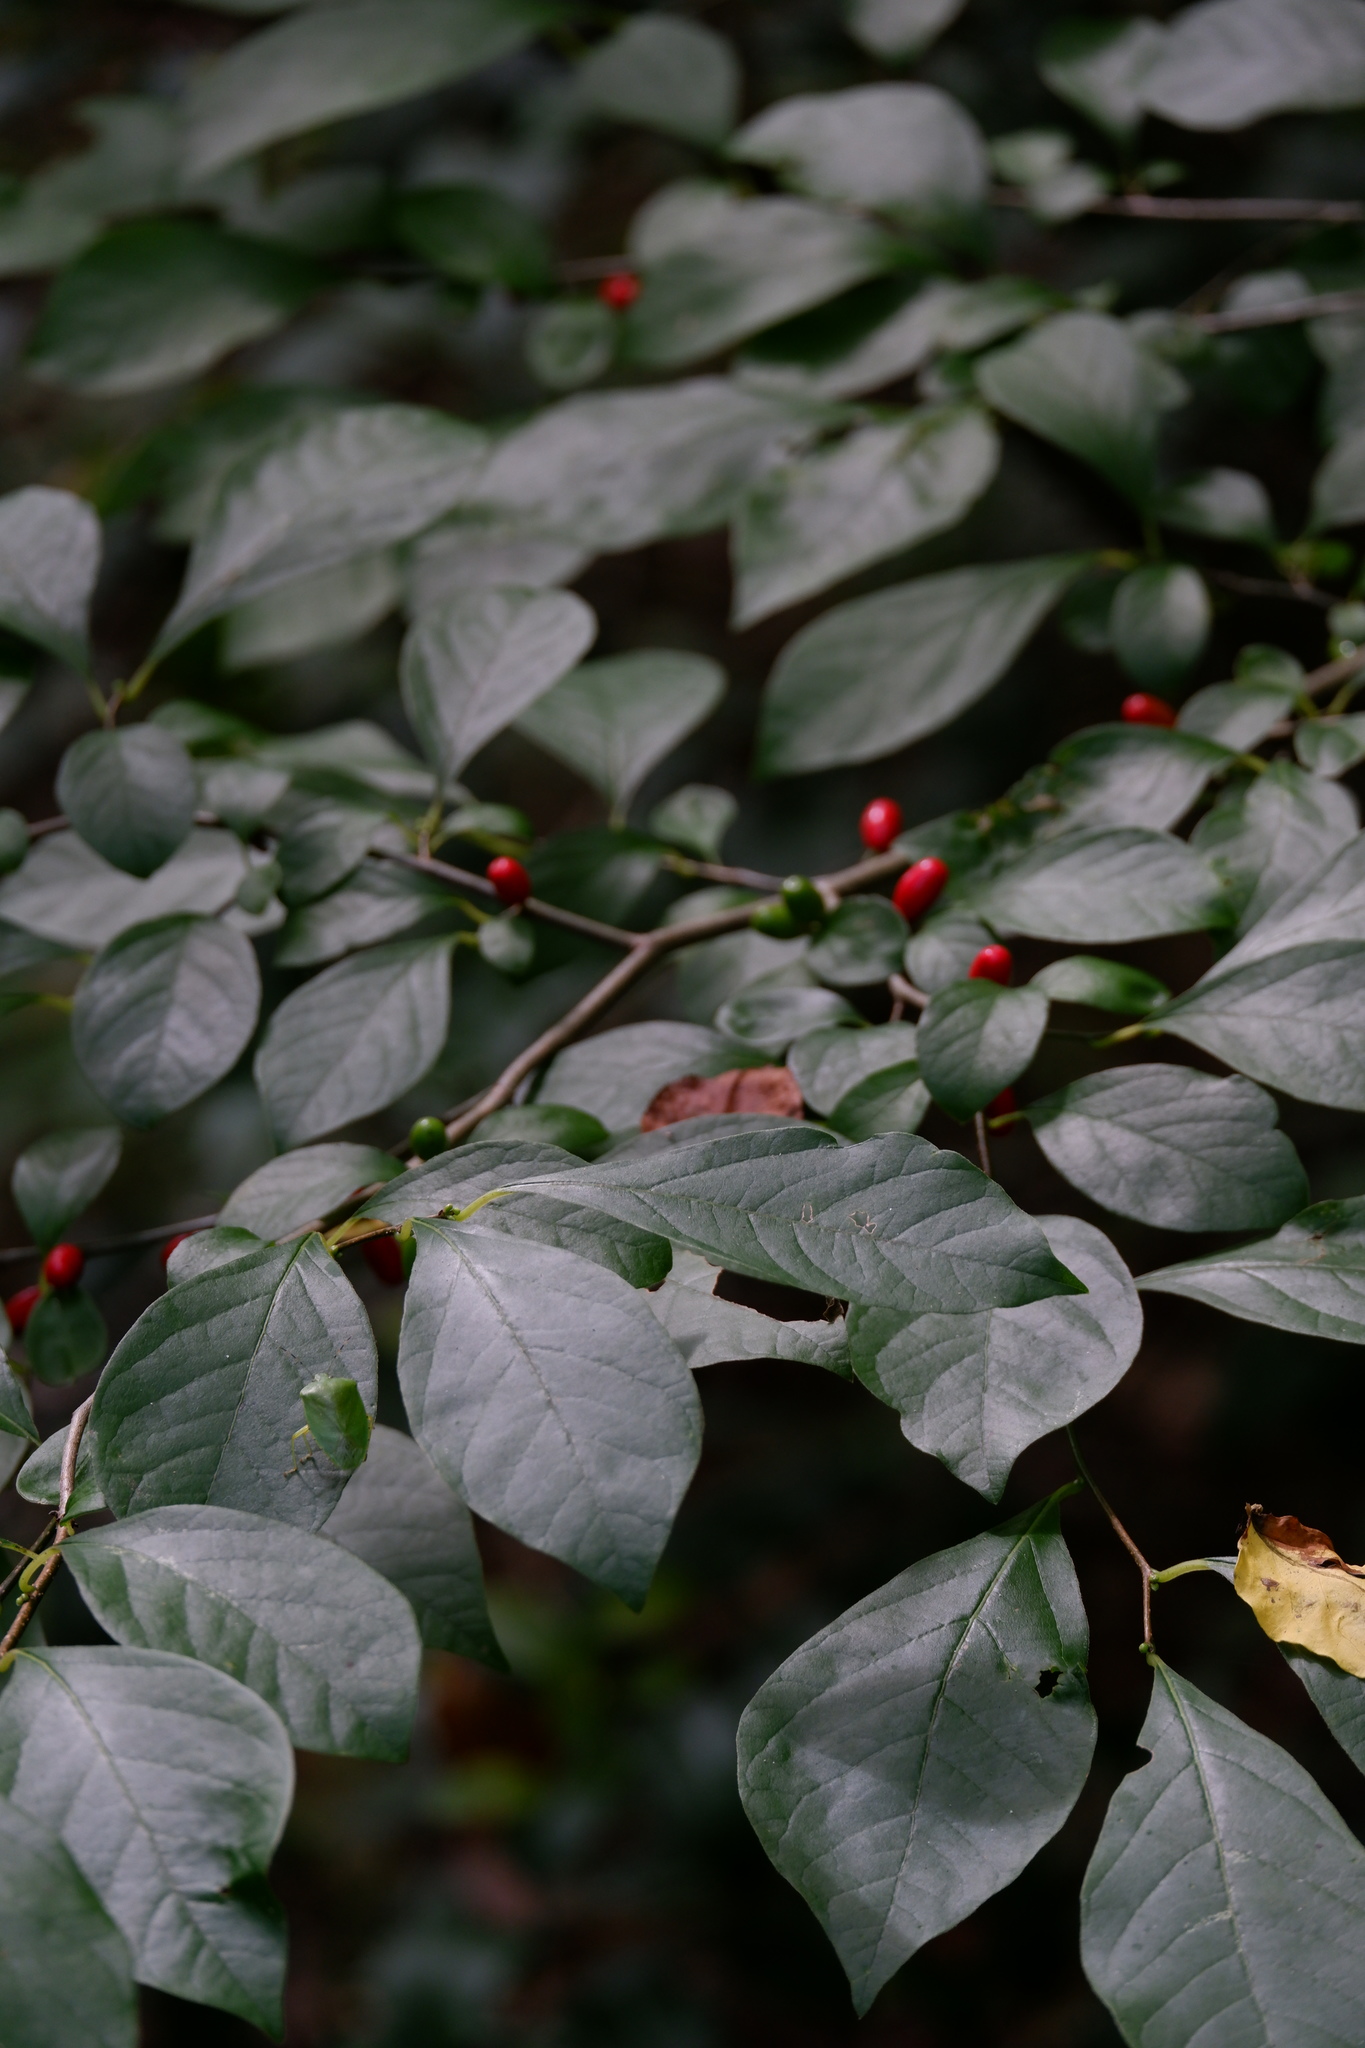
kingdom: Plantae
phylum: Tracheophyta
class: Magnoliopsida
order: Laurales
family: Lauraceae
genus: Lindera
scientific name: Lindera benzoin
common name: Spicebush
